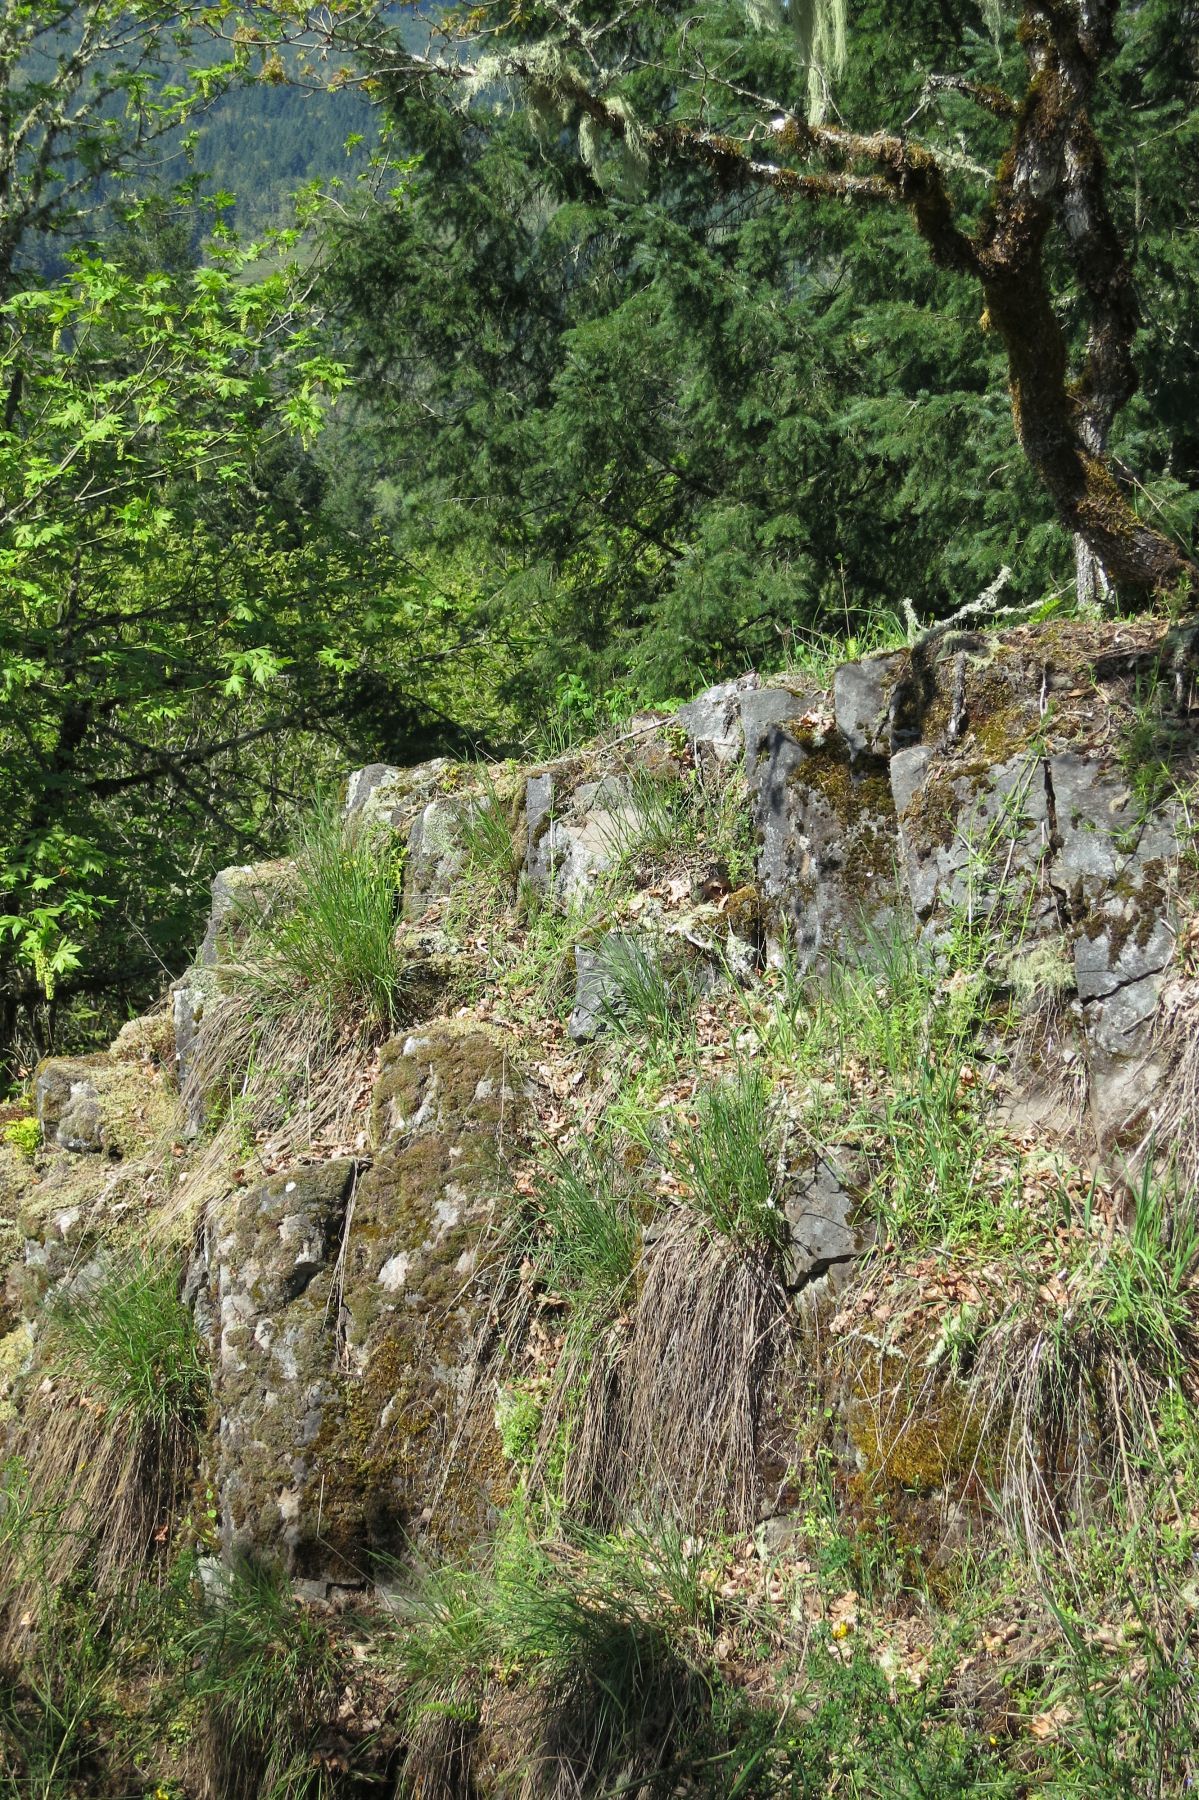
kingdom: Plantae
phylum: Tracheophyta
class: Liliopsida
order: Poales
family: Poaceae
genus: Melica
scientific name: Melica harfordii
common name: Harford's melic
